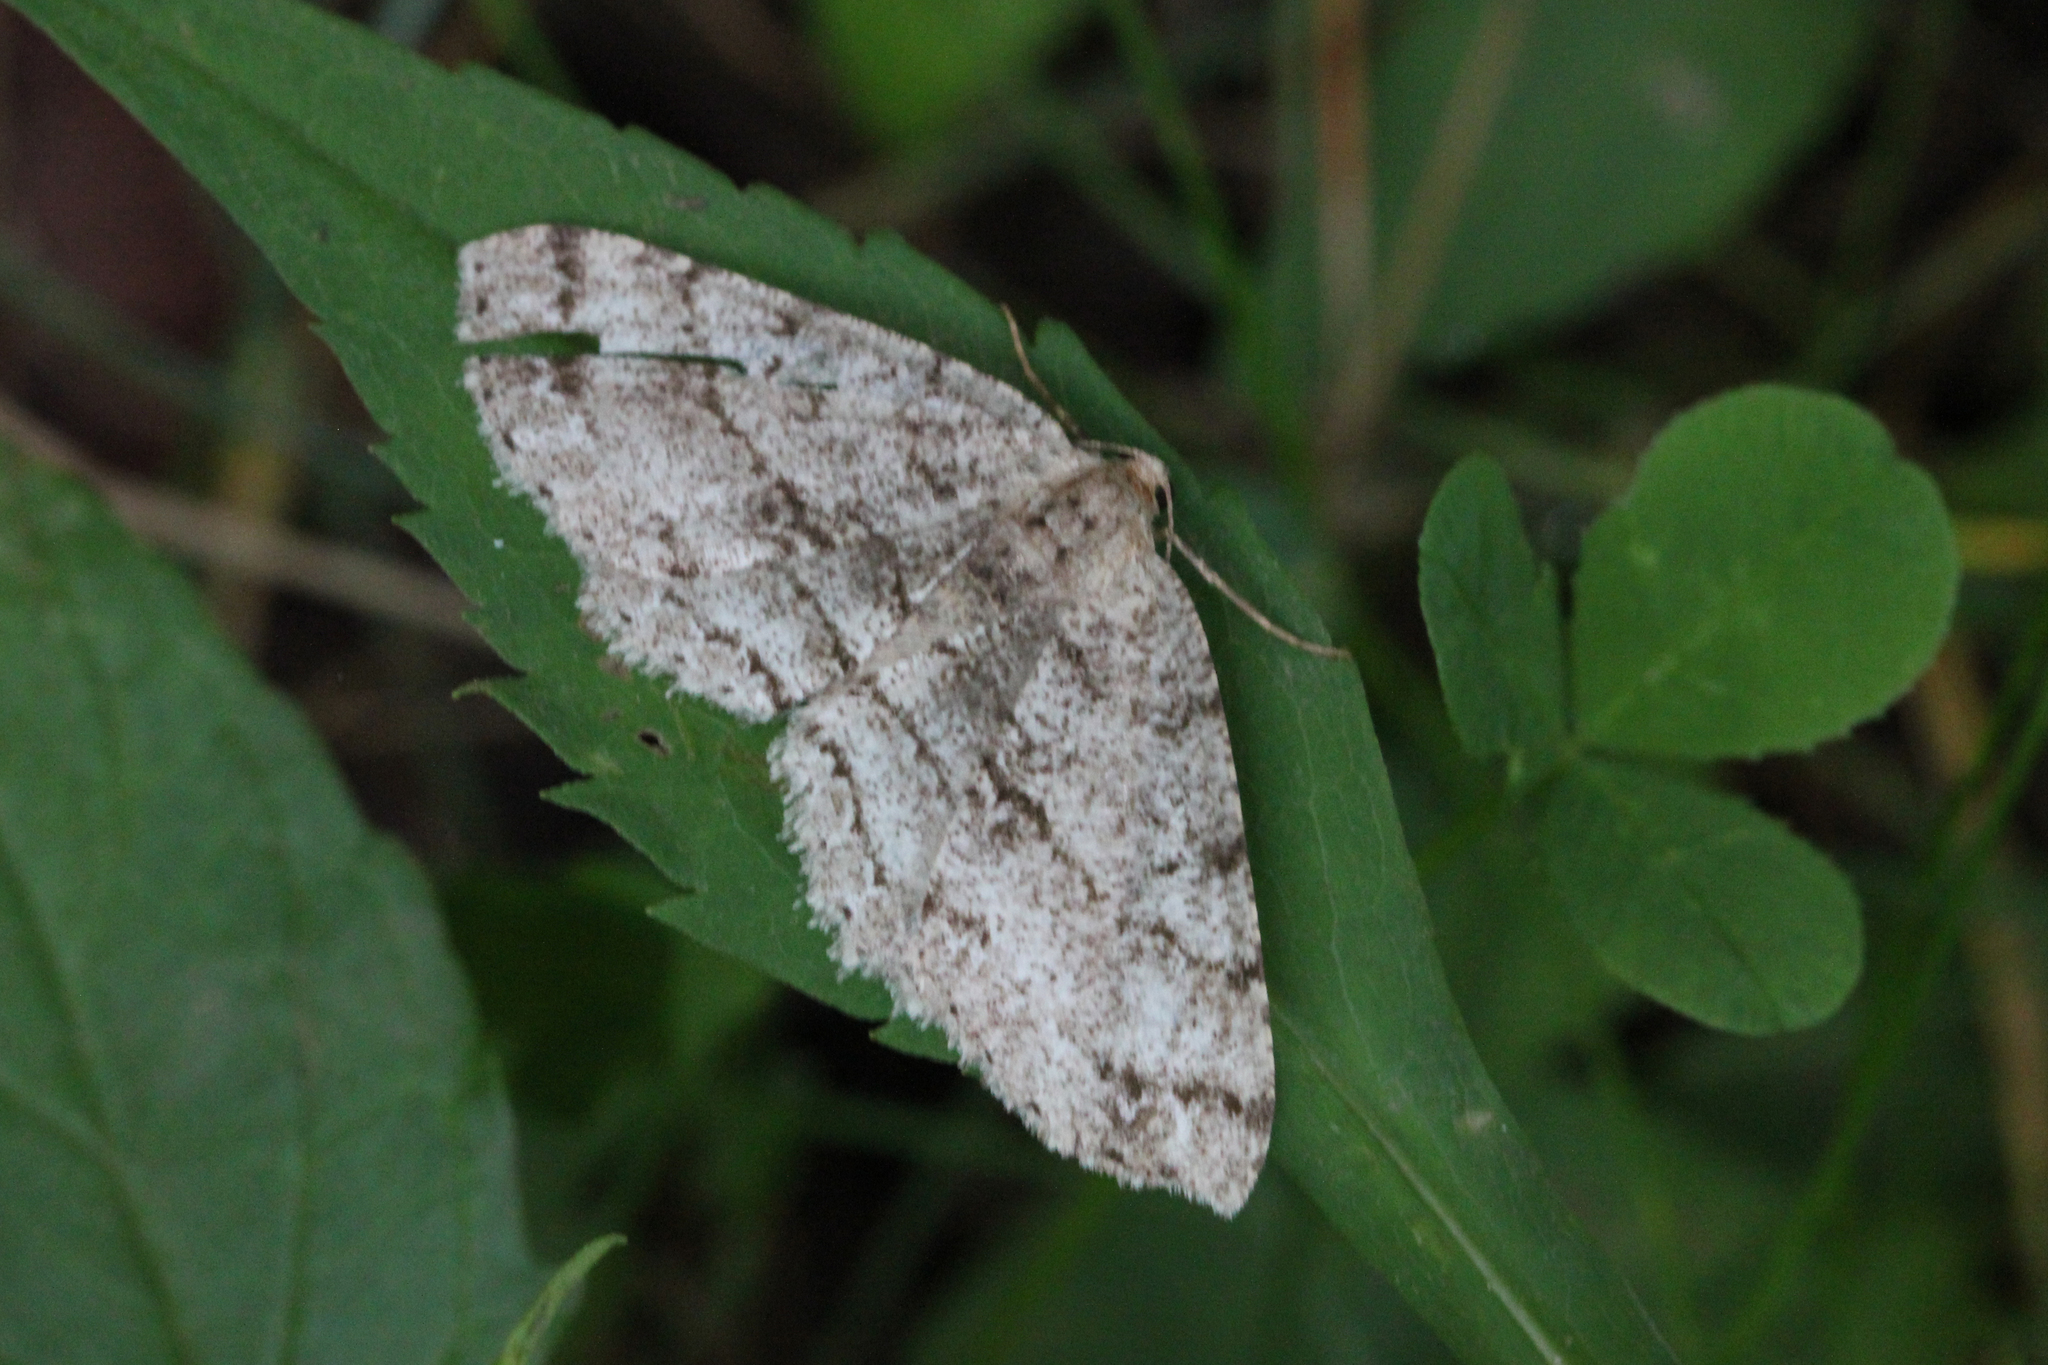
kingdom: Animalia
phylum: Arthropoda
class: Insecta
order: Lepidoptera
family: Geometridae
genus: Melanolophia
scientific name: Melanolophia canadaria
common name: Canadian melanolophia
